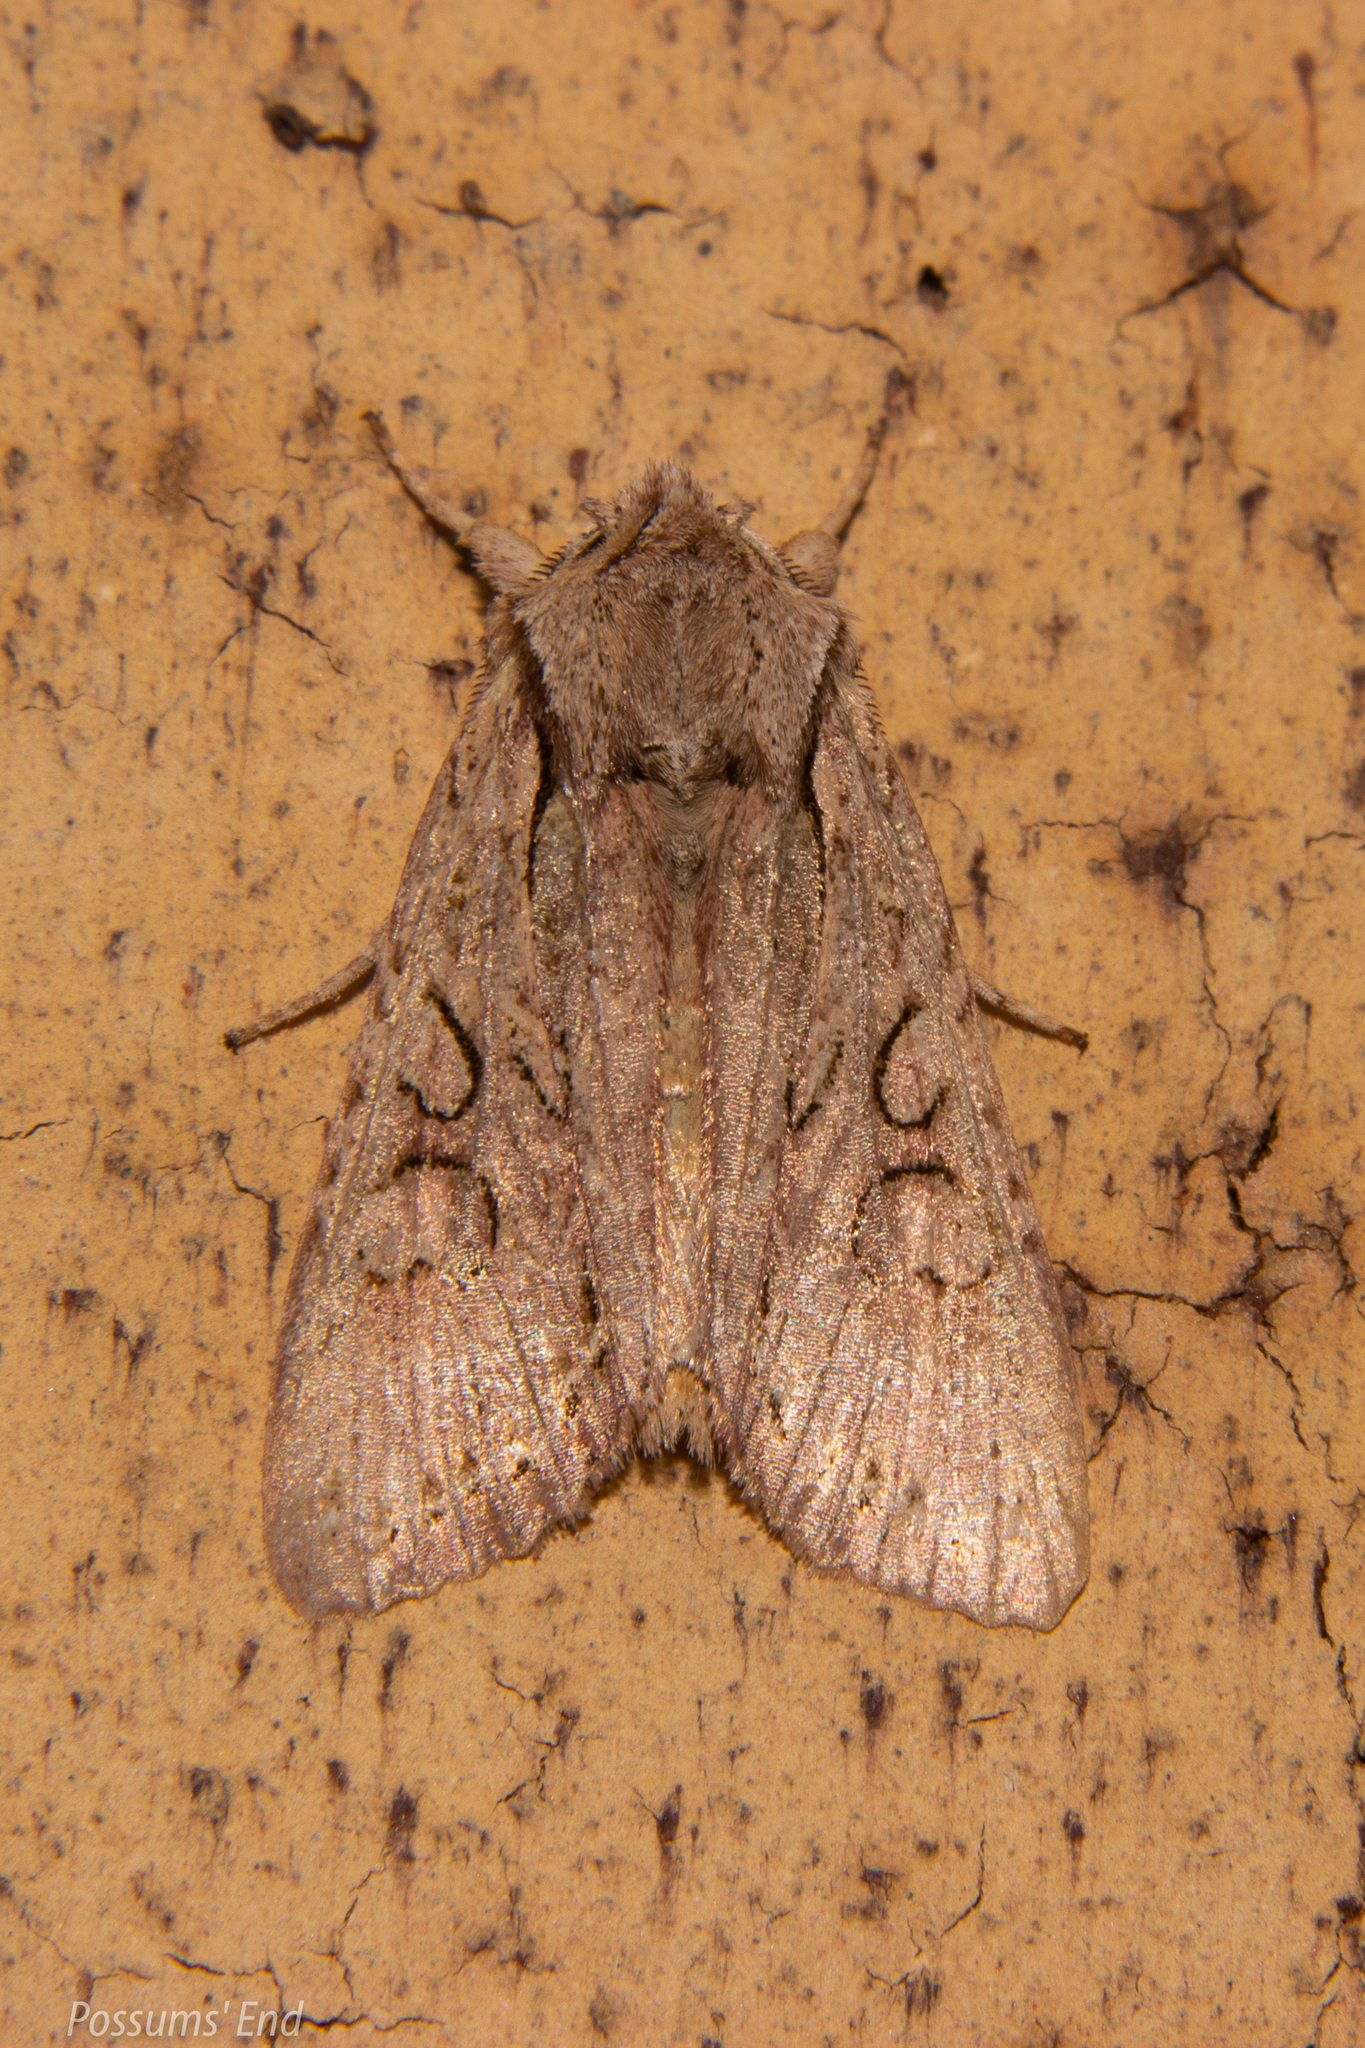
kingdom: Animalia
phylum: Arthropoda
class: Insecta
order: Lepidoptera
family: Noctuidae
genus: Ichneutica
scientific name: Ichneutica skelloni
